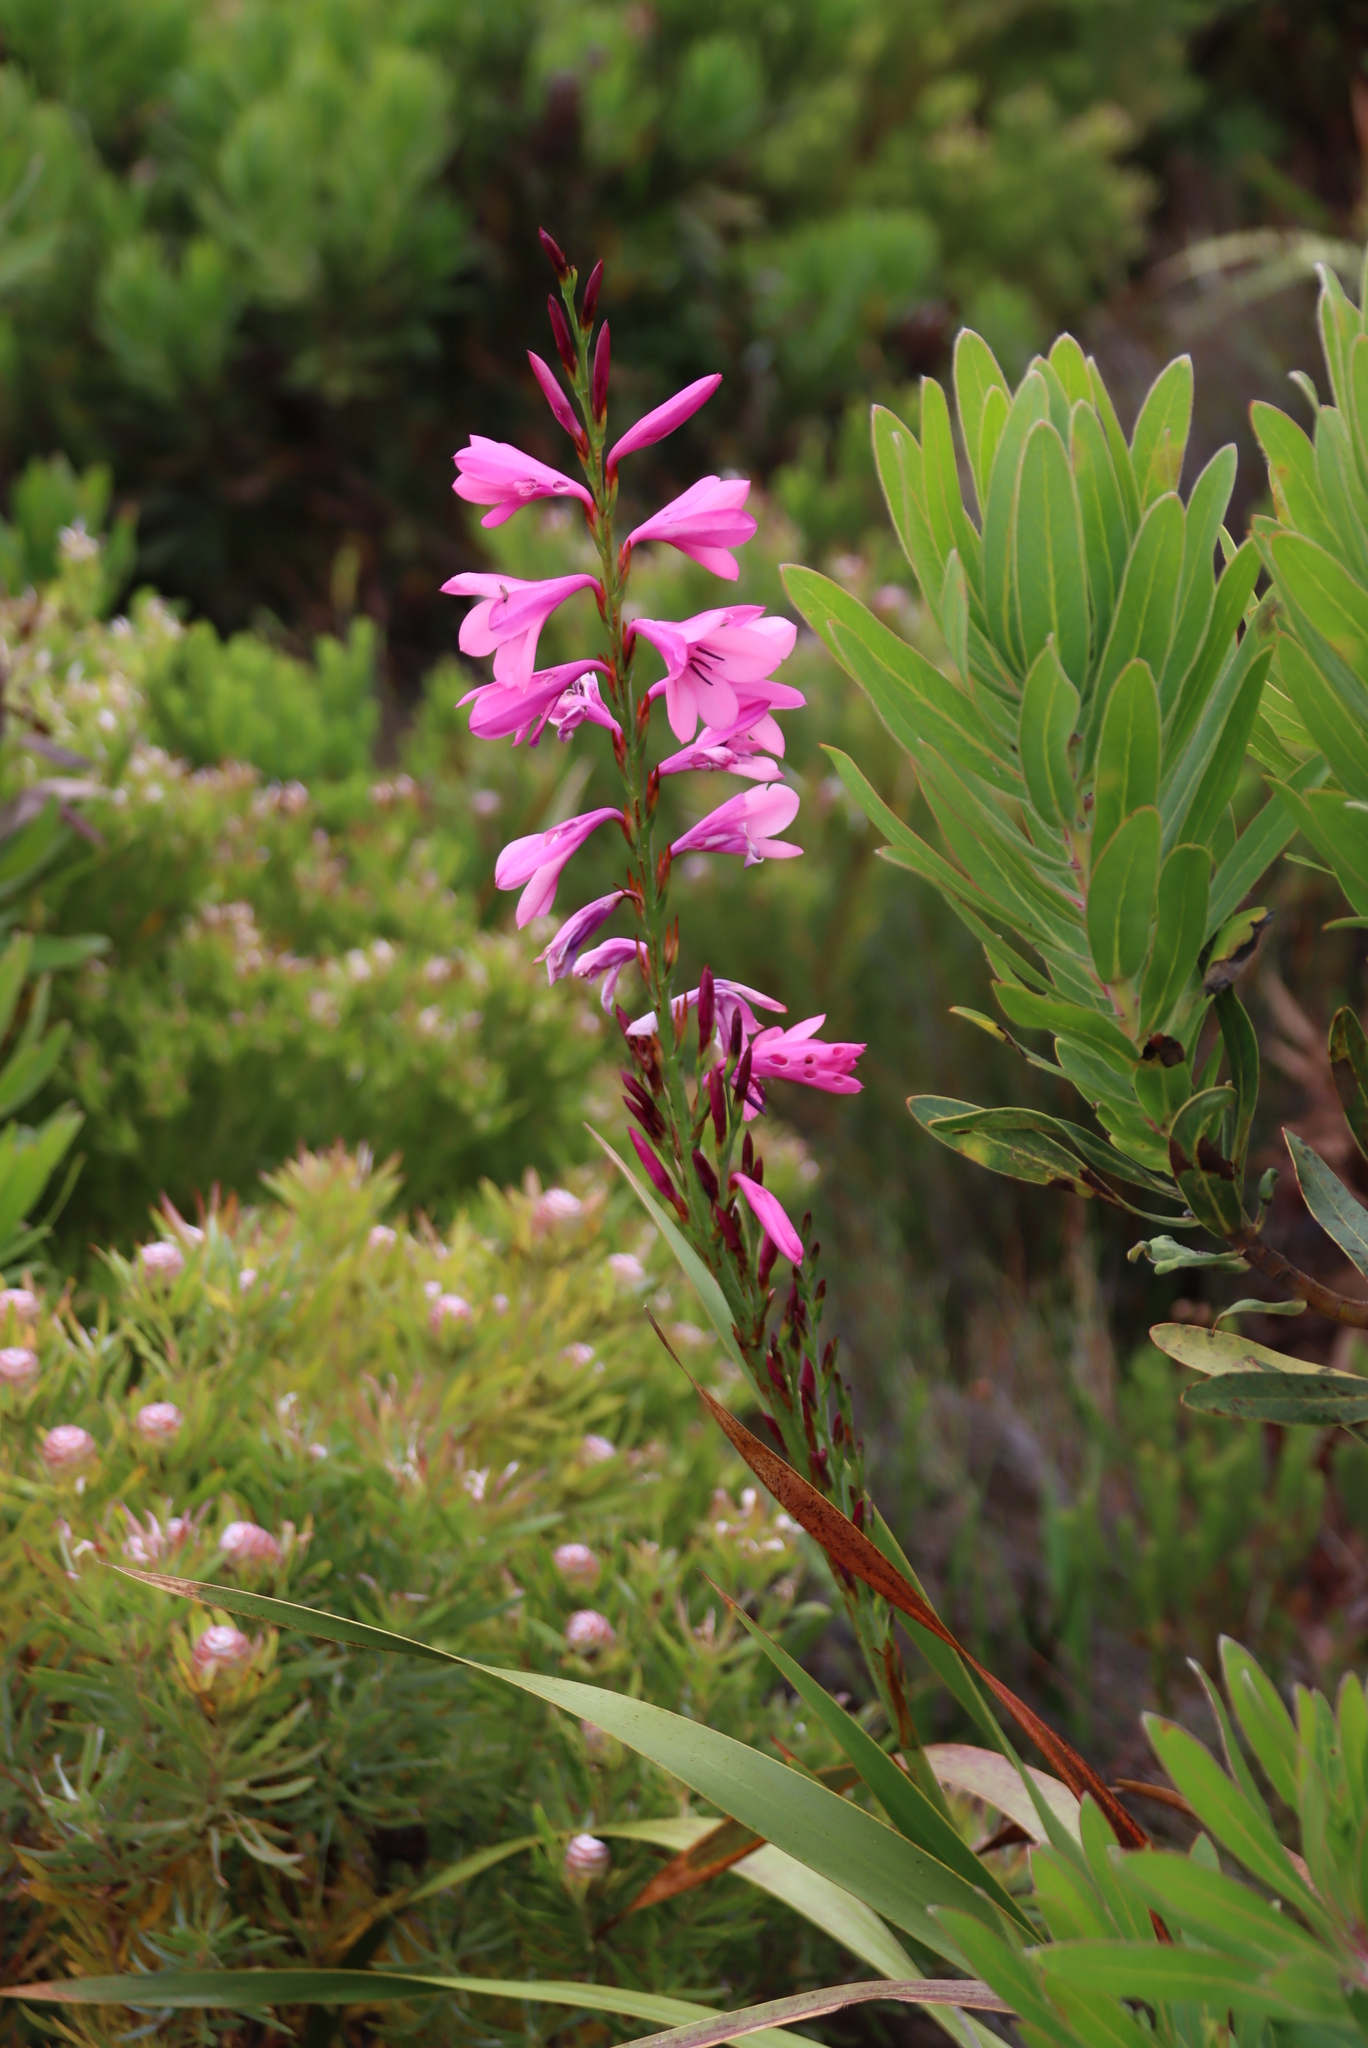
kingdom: Plantae
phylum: Tracheophyta
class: Liliopsida
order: Asparagales
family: Iridaceae
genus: Watsonia
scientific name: Watsonia borbonica
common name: Bugle-lily
